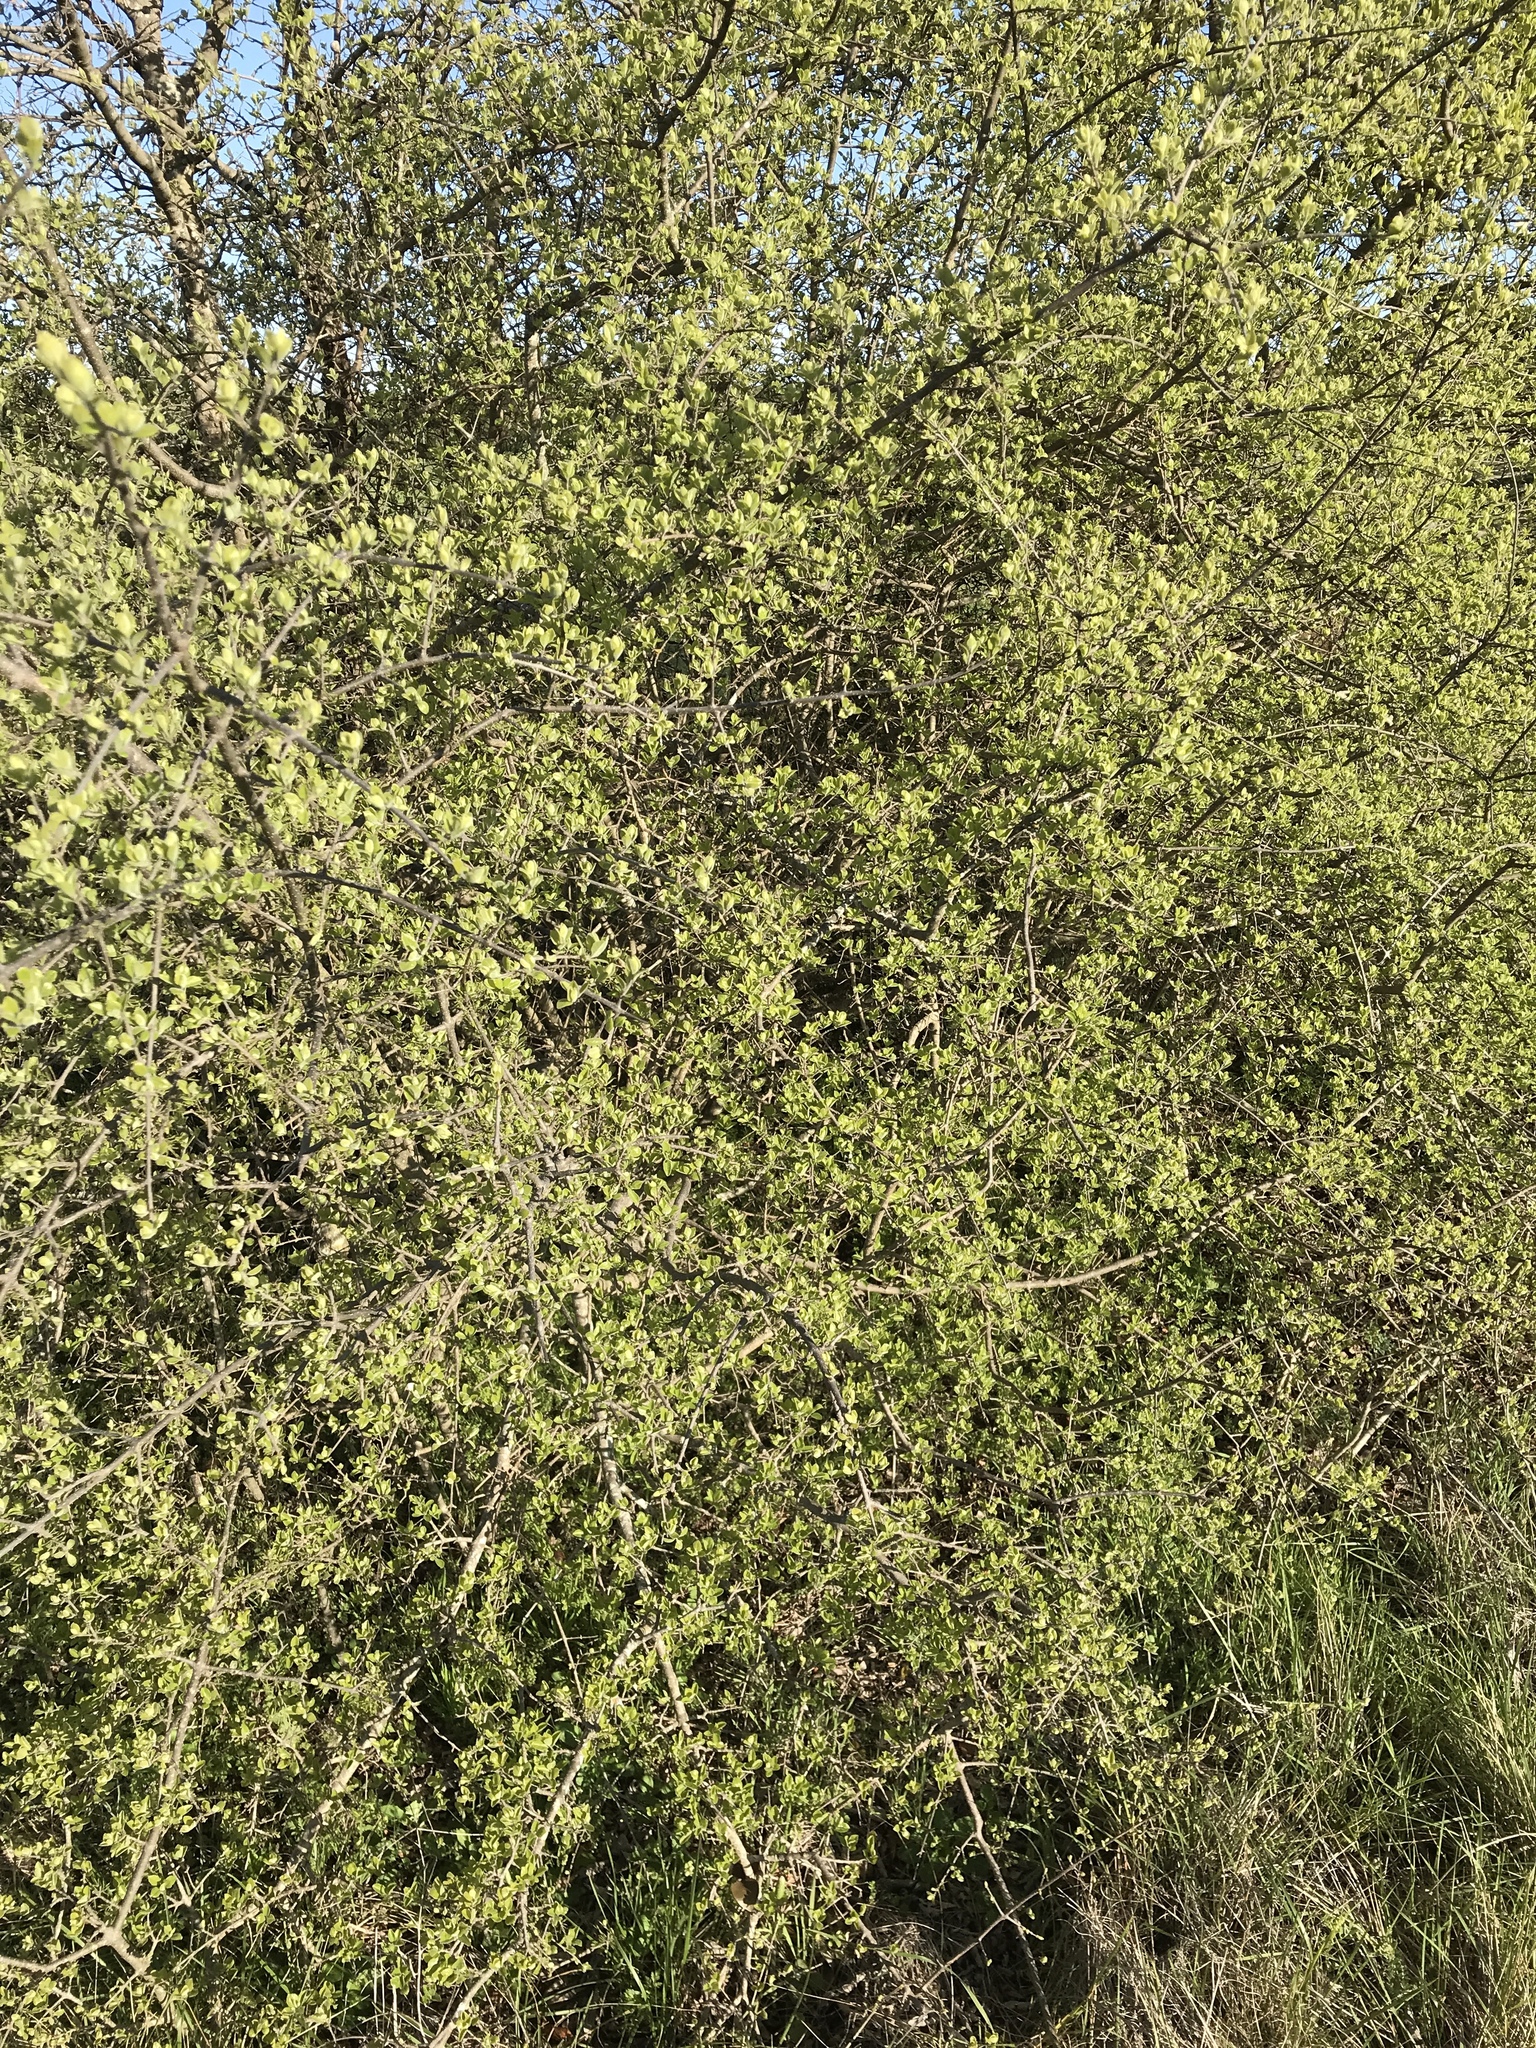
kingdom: Plantae
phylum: Tracheophyta
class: Magnoliopsida
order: Lamiales
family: Oleaceae
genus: Forestiera
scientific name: Forestiera pubescens
